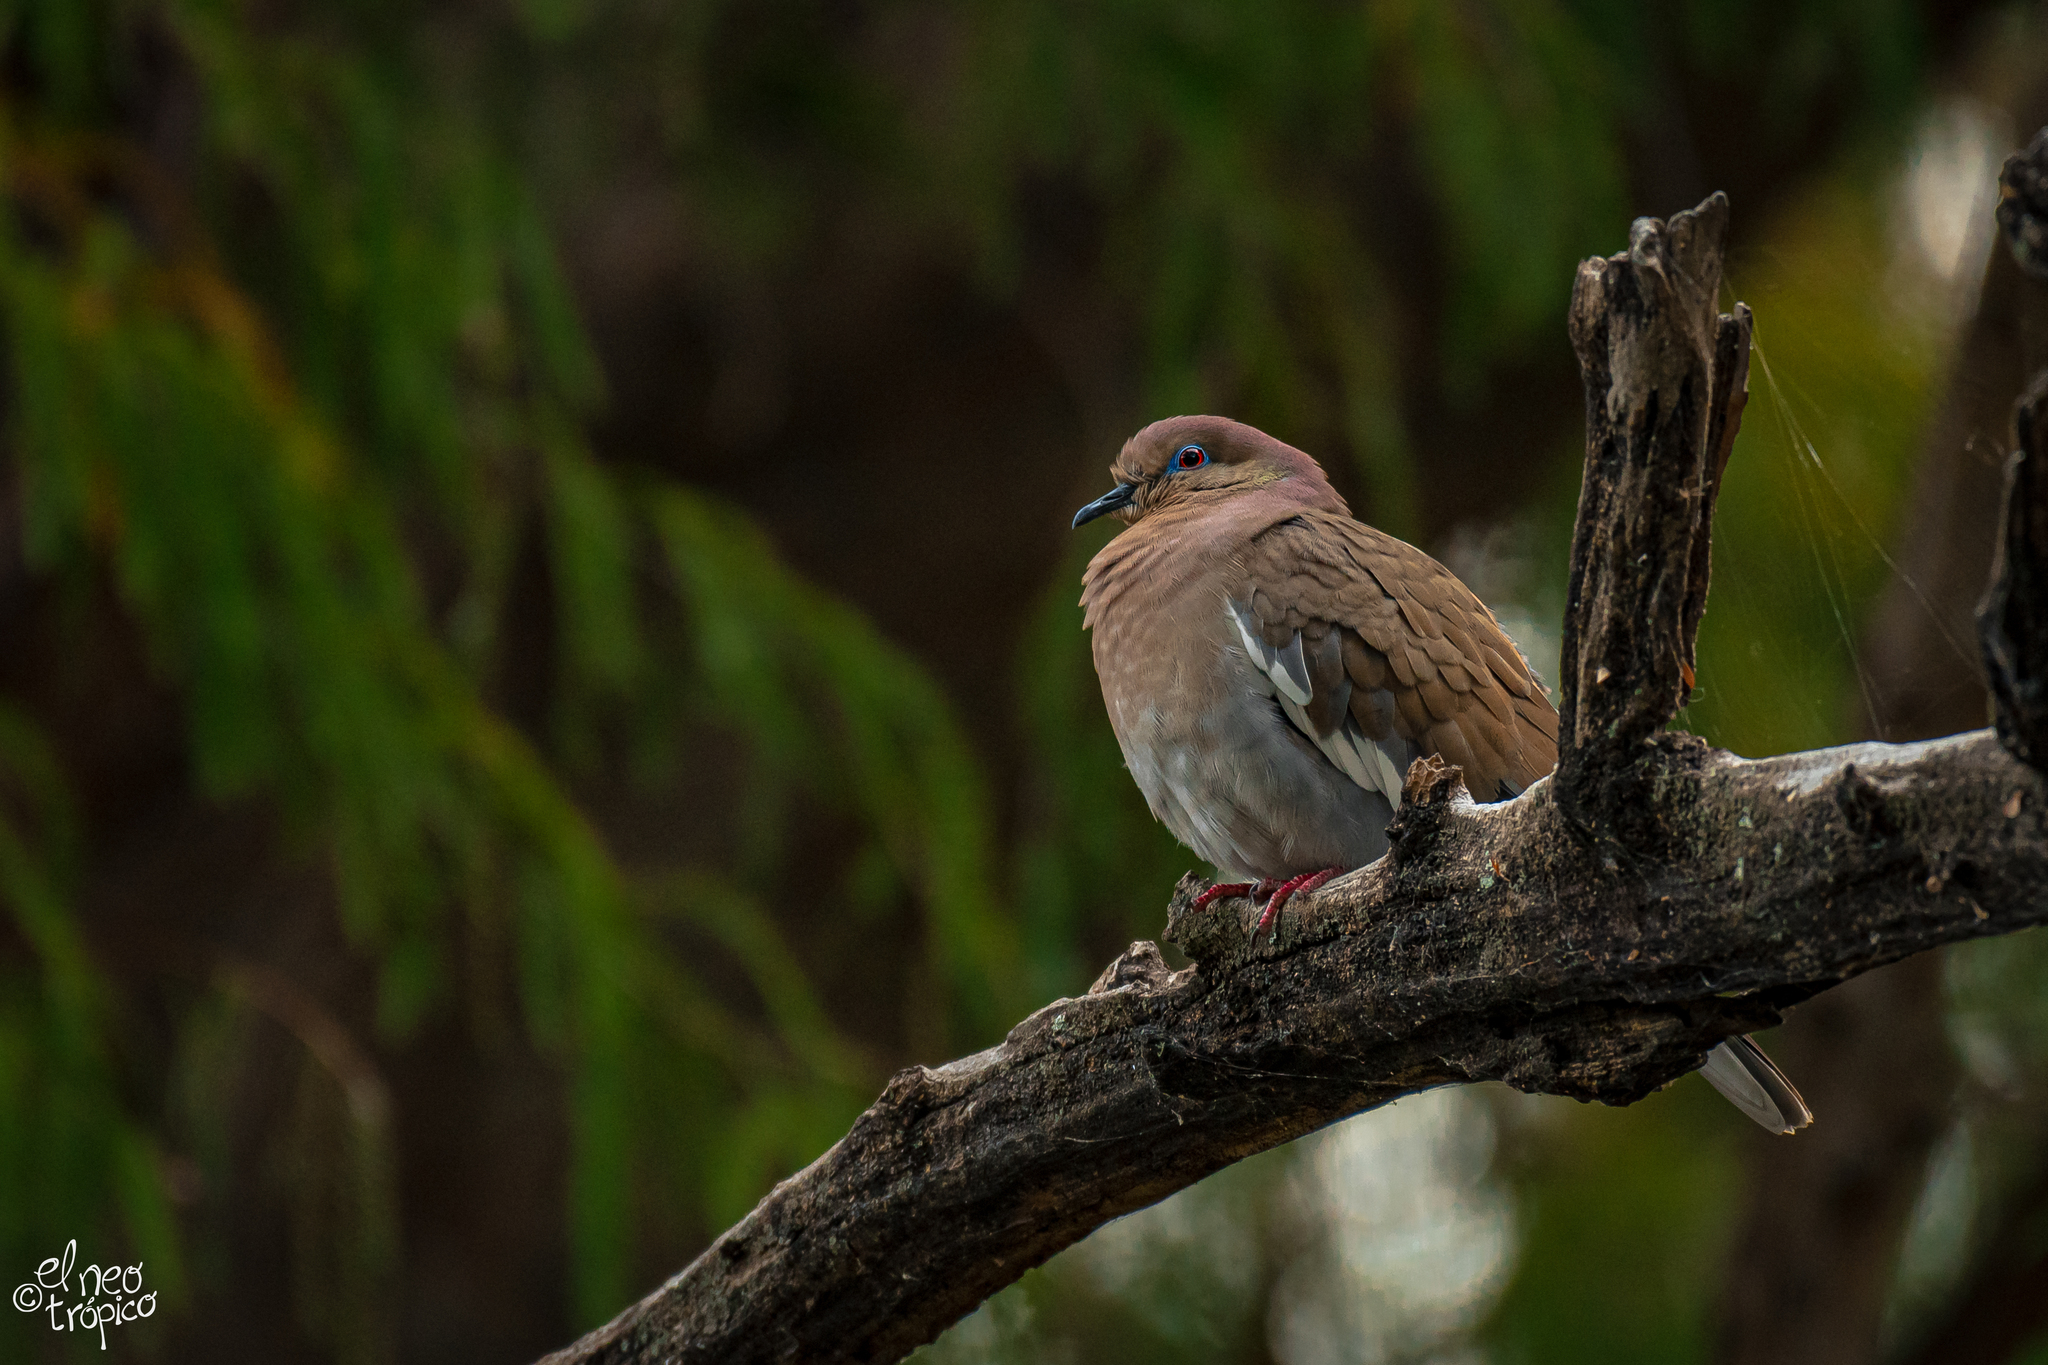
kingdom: Animalia
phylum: Chordata
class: Aves
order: Columbiformes
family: Columbidae
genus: Zenaida
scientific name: Zenaida asiatica
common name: White-winged dove
